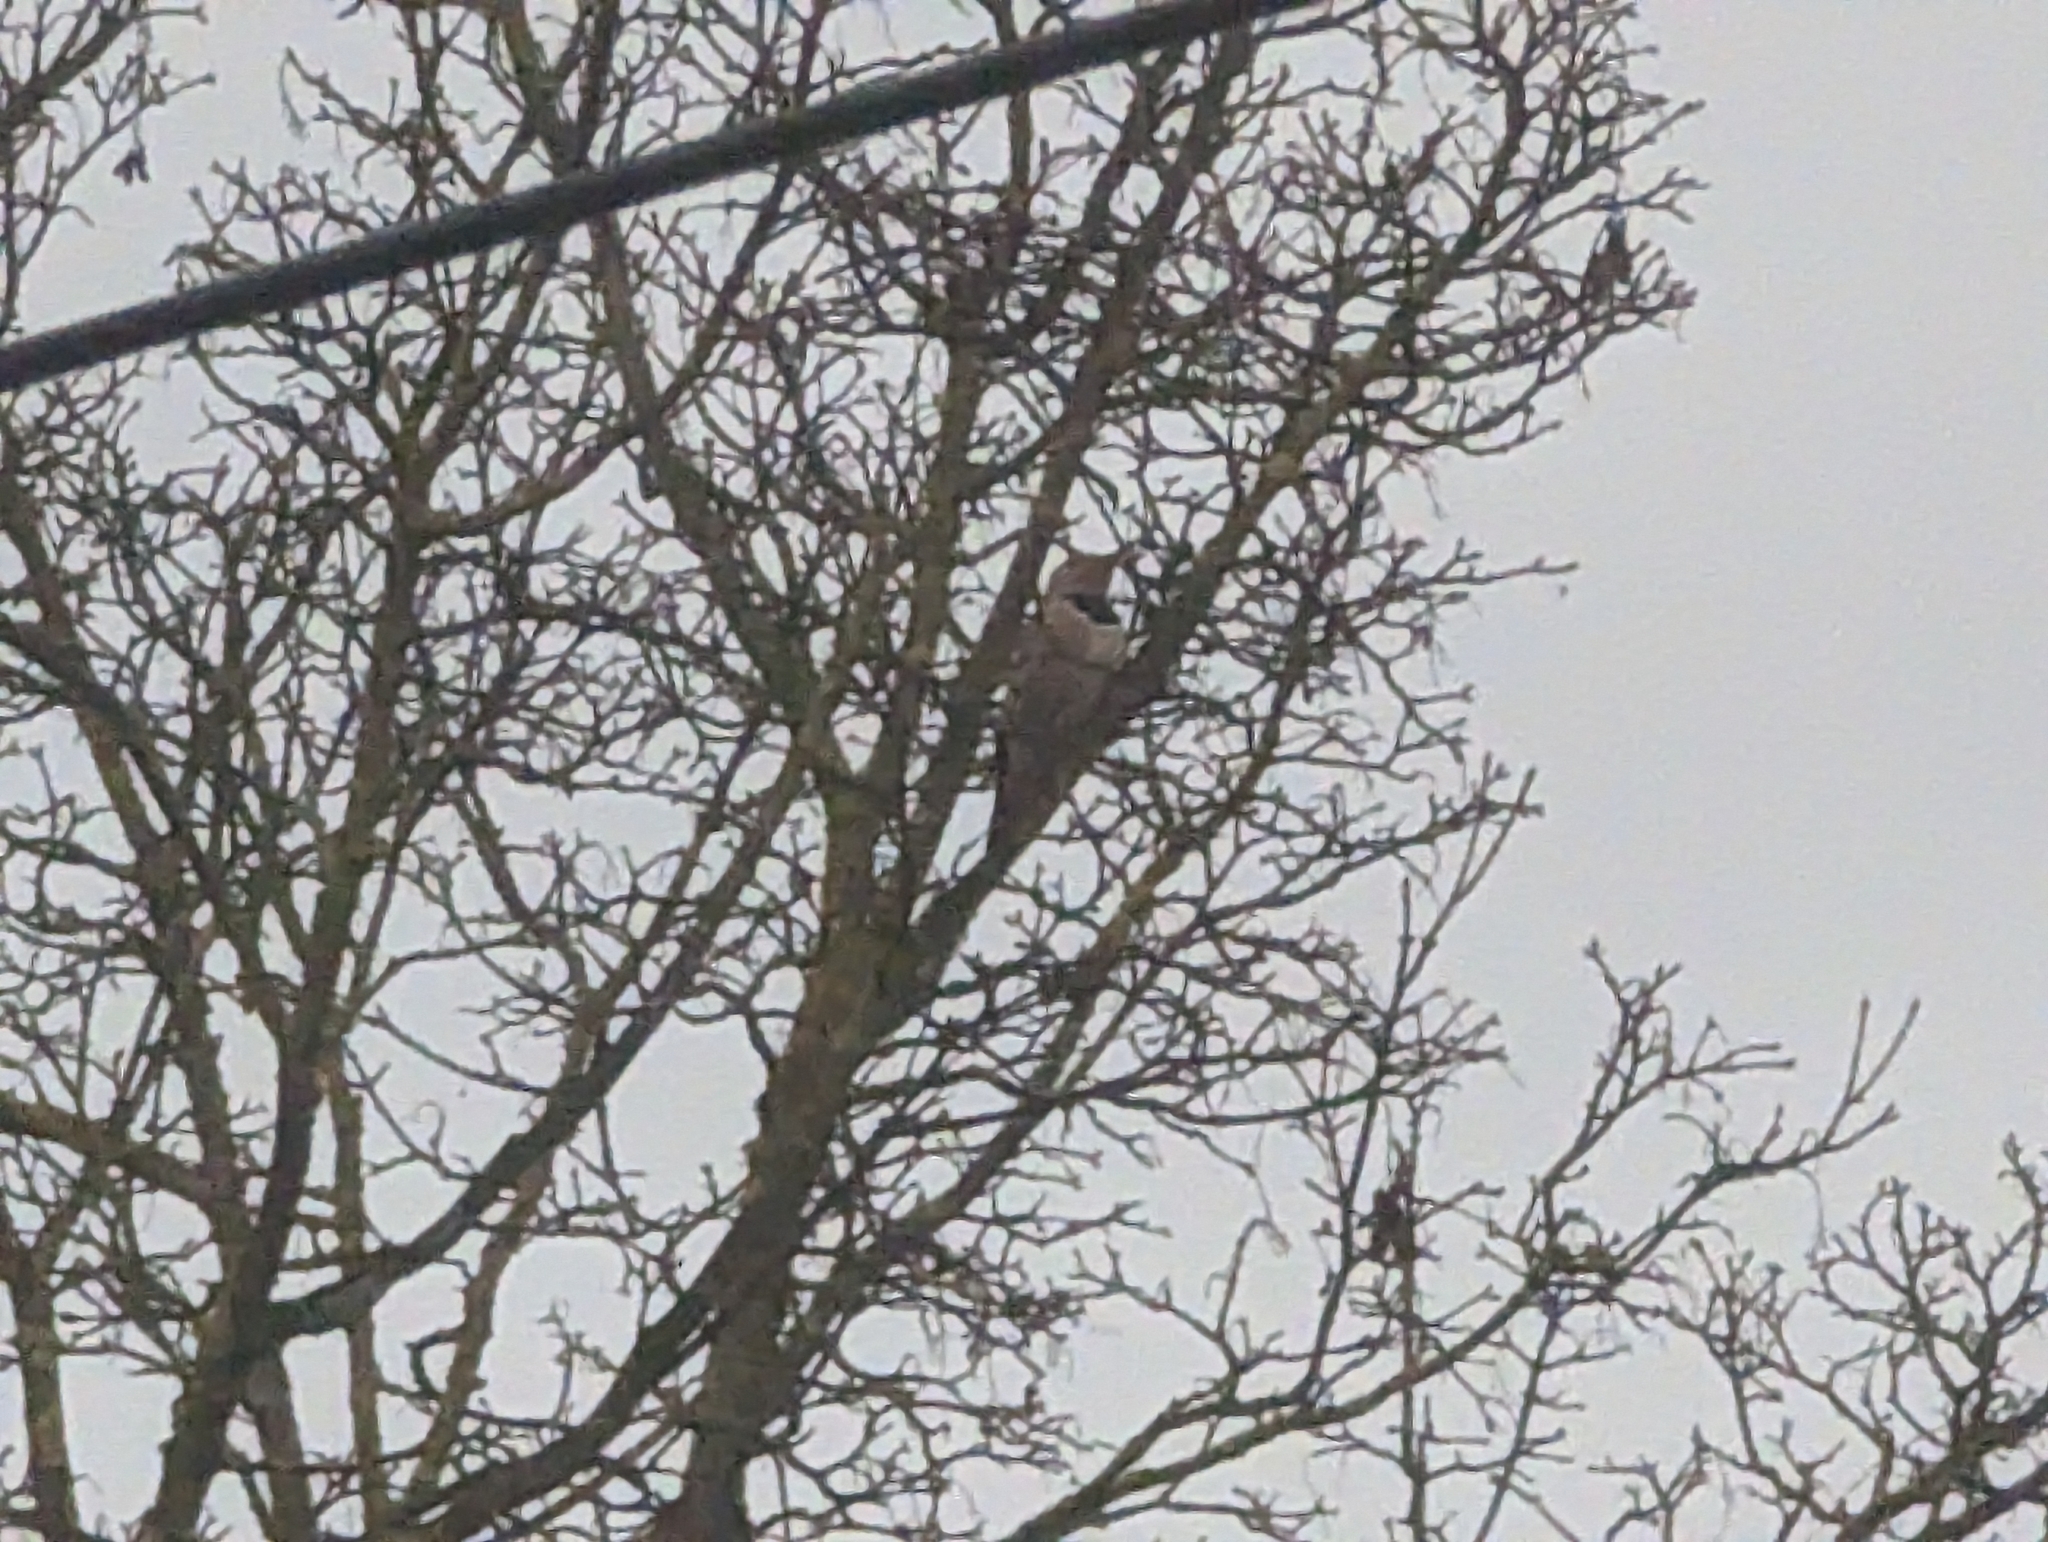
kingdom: Animalia
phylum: Chordata
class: Aves
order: Piciformes
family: Picidae
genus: Colaptes
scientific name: Colaptes auratus
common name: Northern flicker
